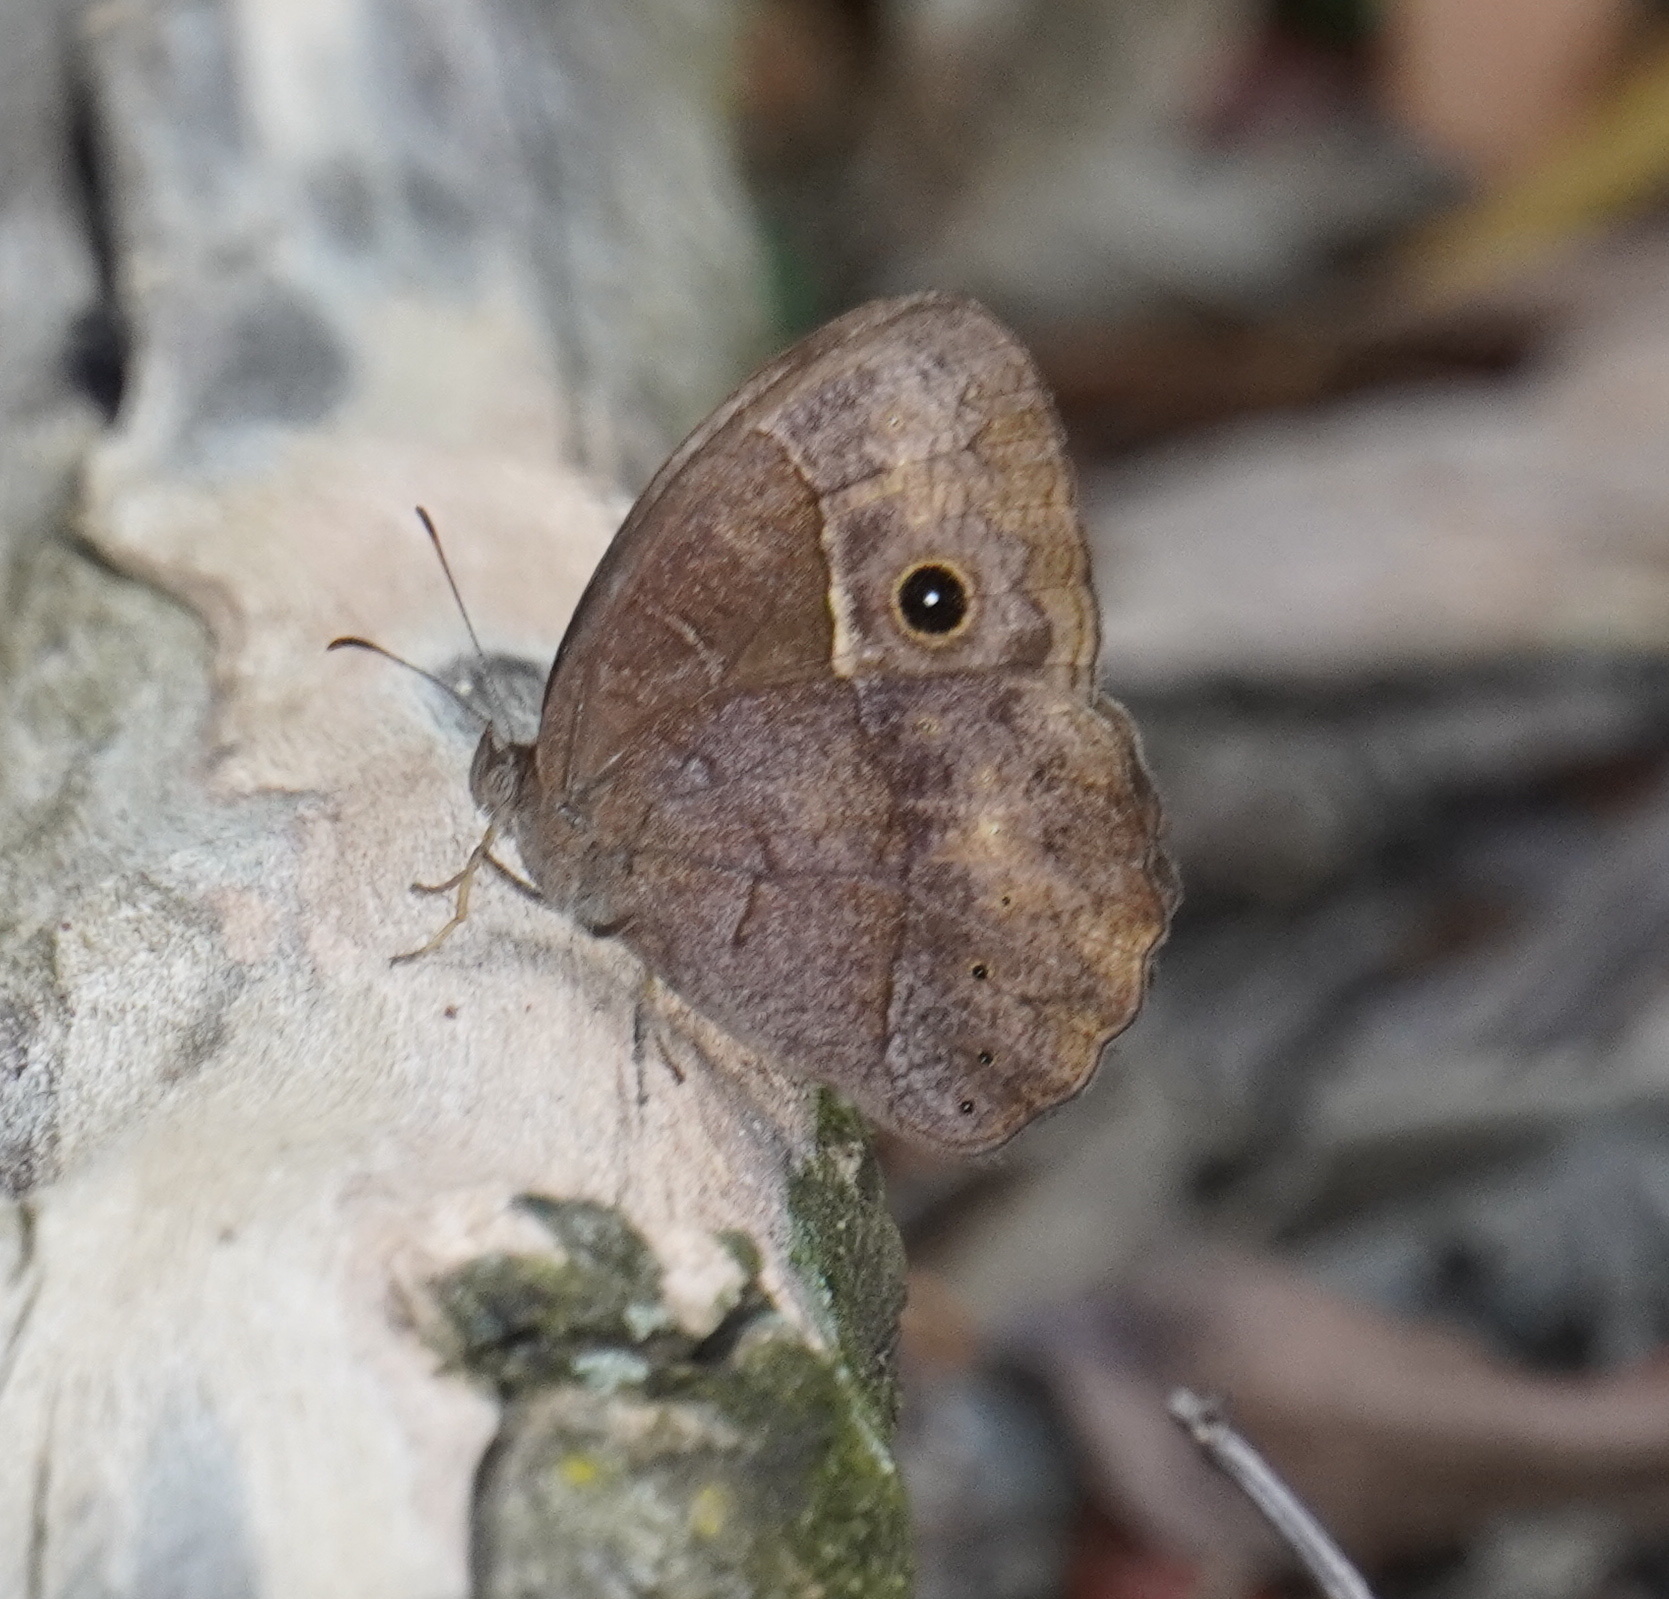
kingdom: Animalia
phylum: Arthropoda
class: Insecta
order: Lepidoptera
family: Nymphalidae
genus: Mycalesis
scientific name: Mycalesis rhacotis
